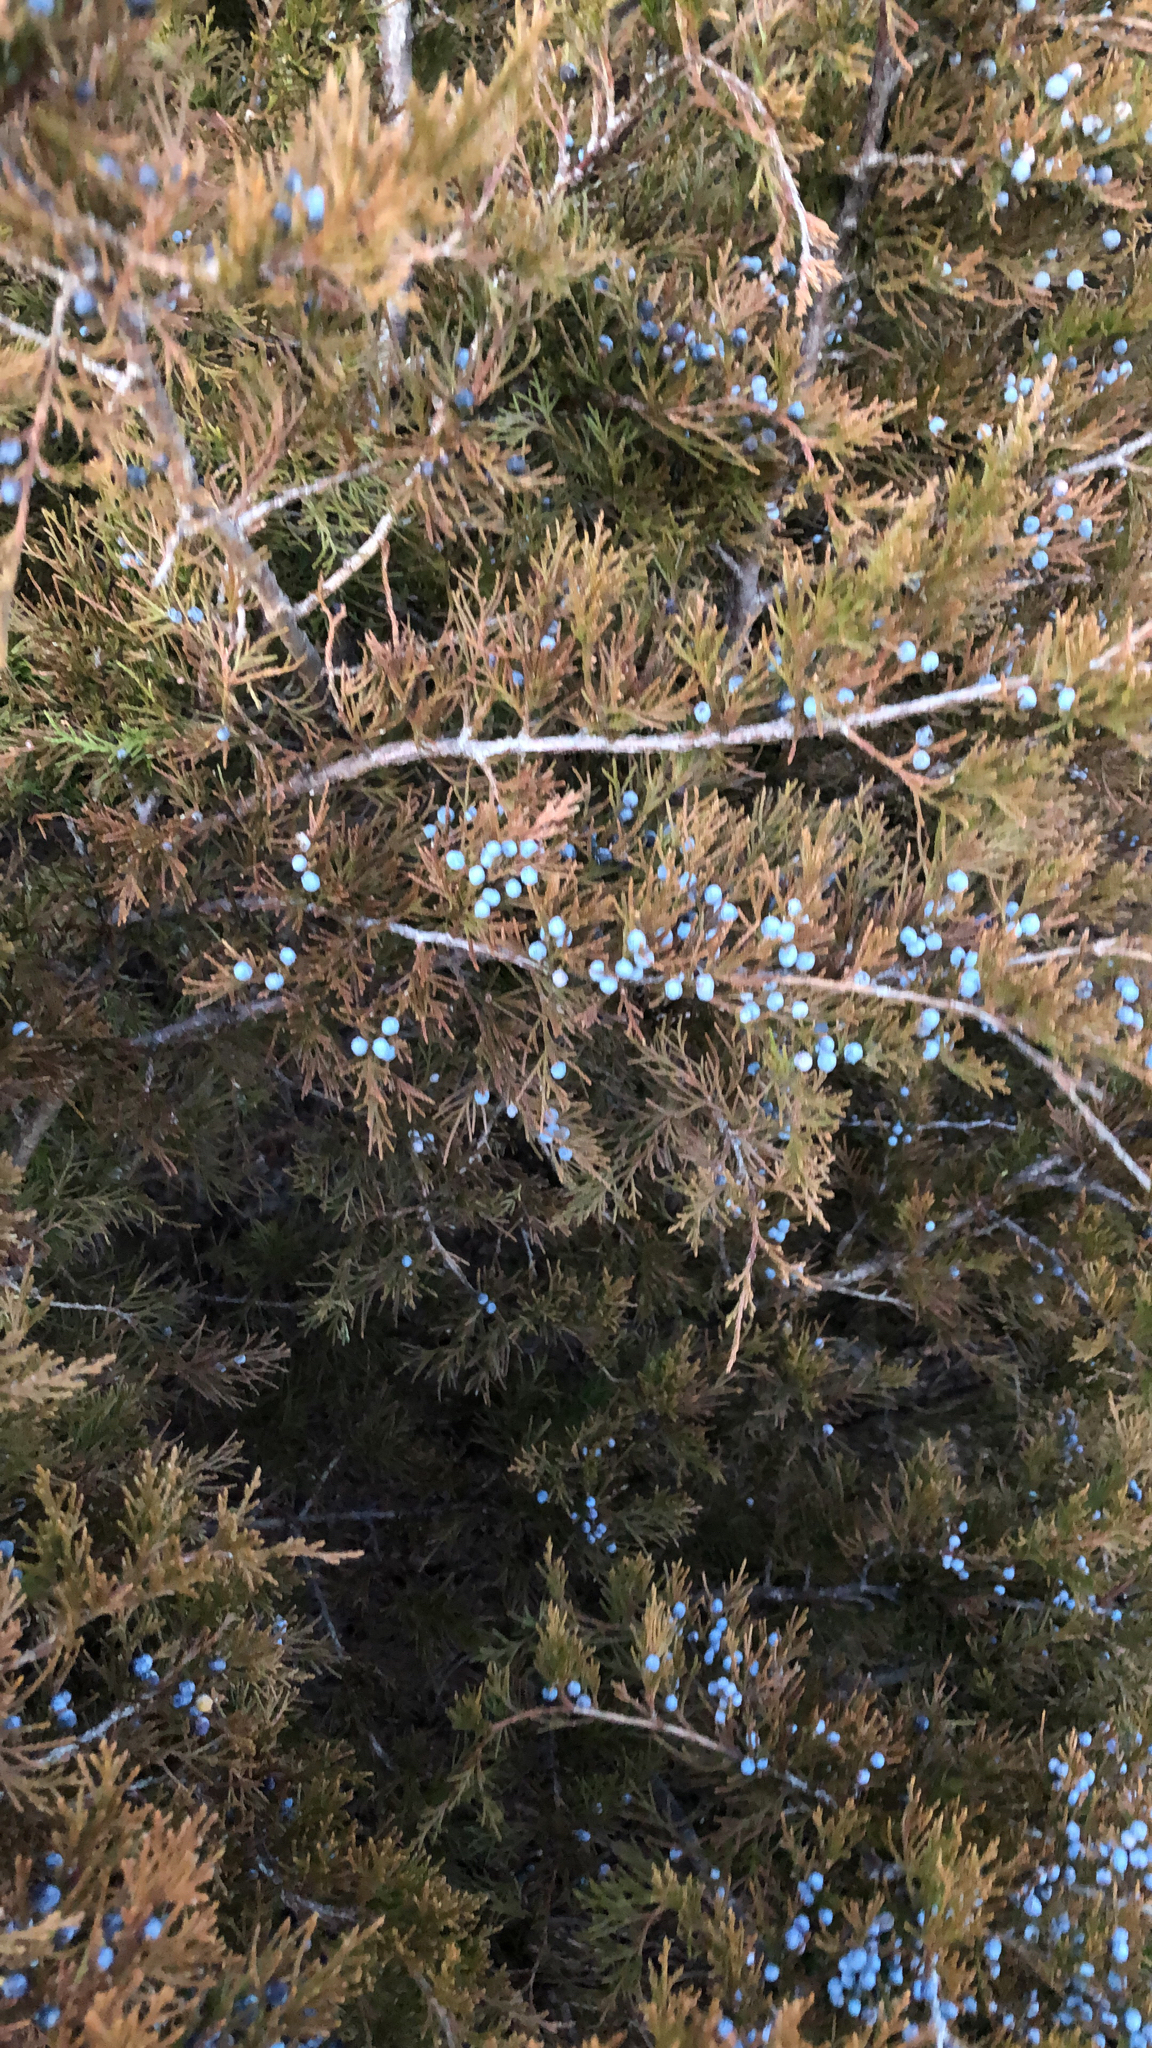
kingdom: Plantae
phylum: Tracheophyta
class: Pinopsida
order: Pinales
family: Cupressaceae
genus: Juniperus
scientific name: Juniperus virginiana
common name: Red juniper
